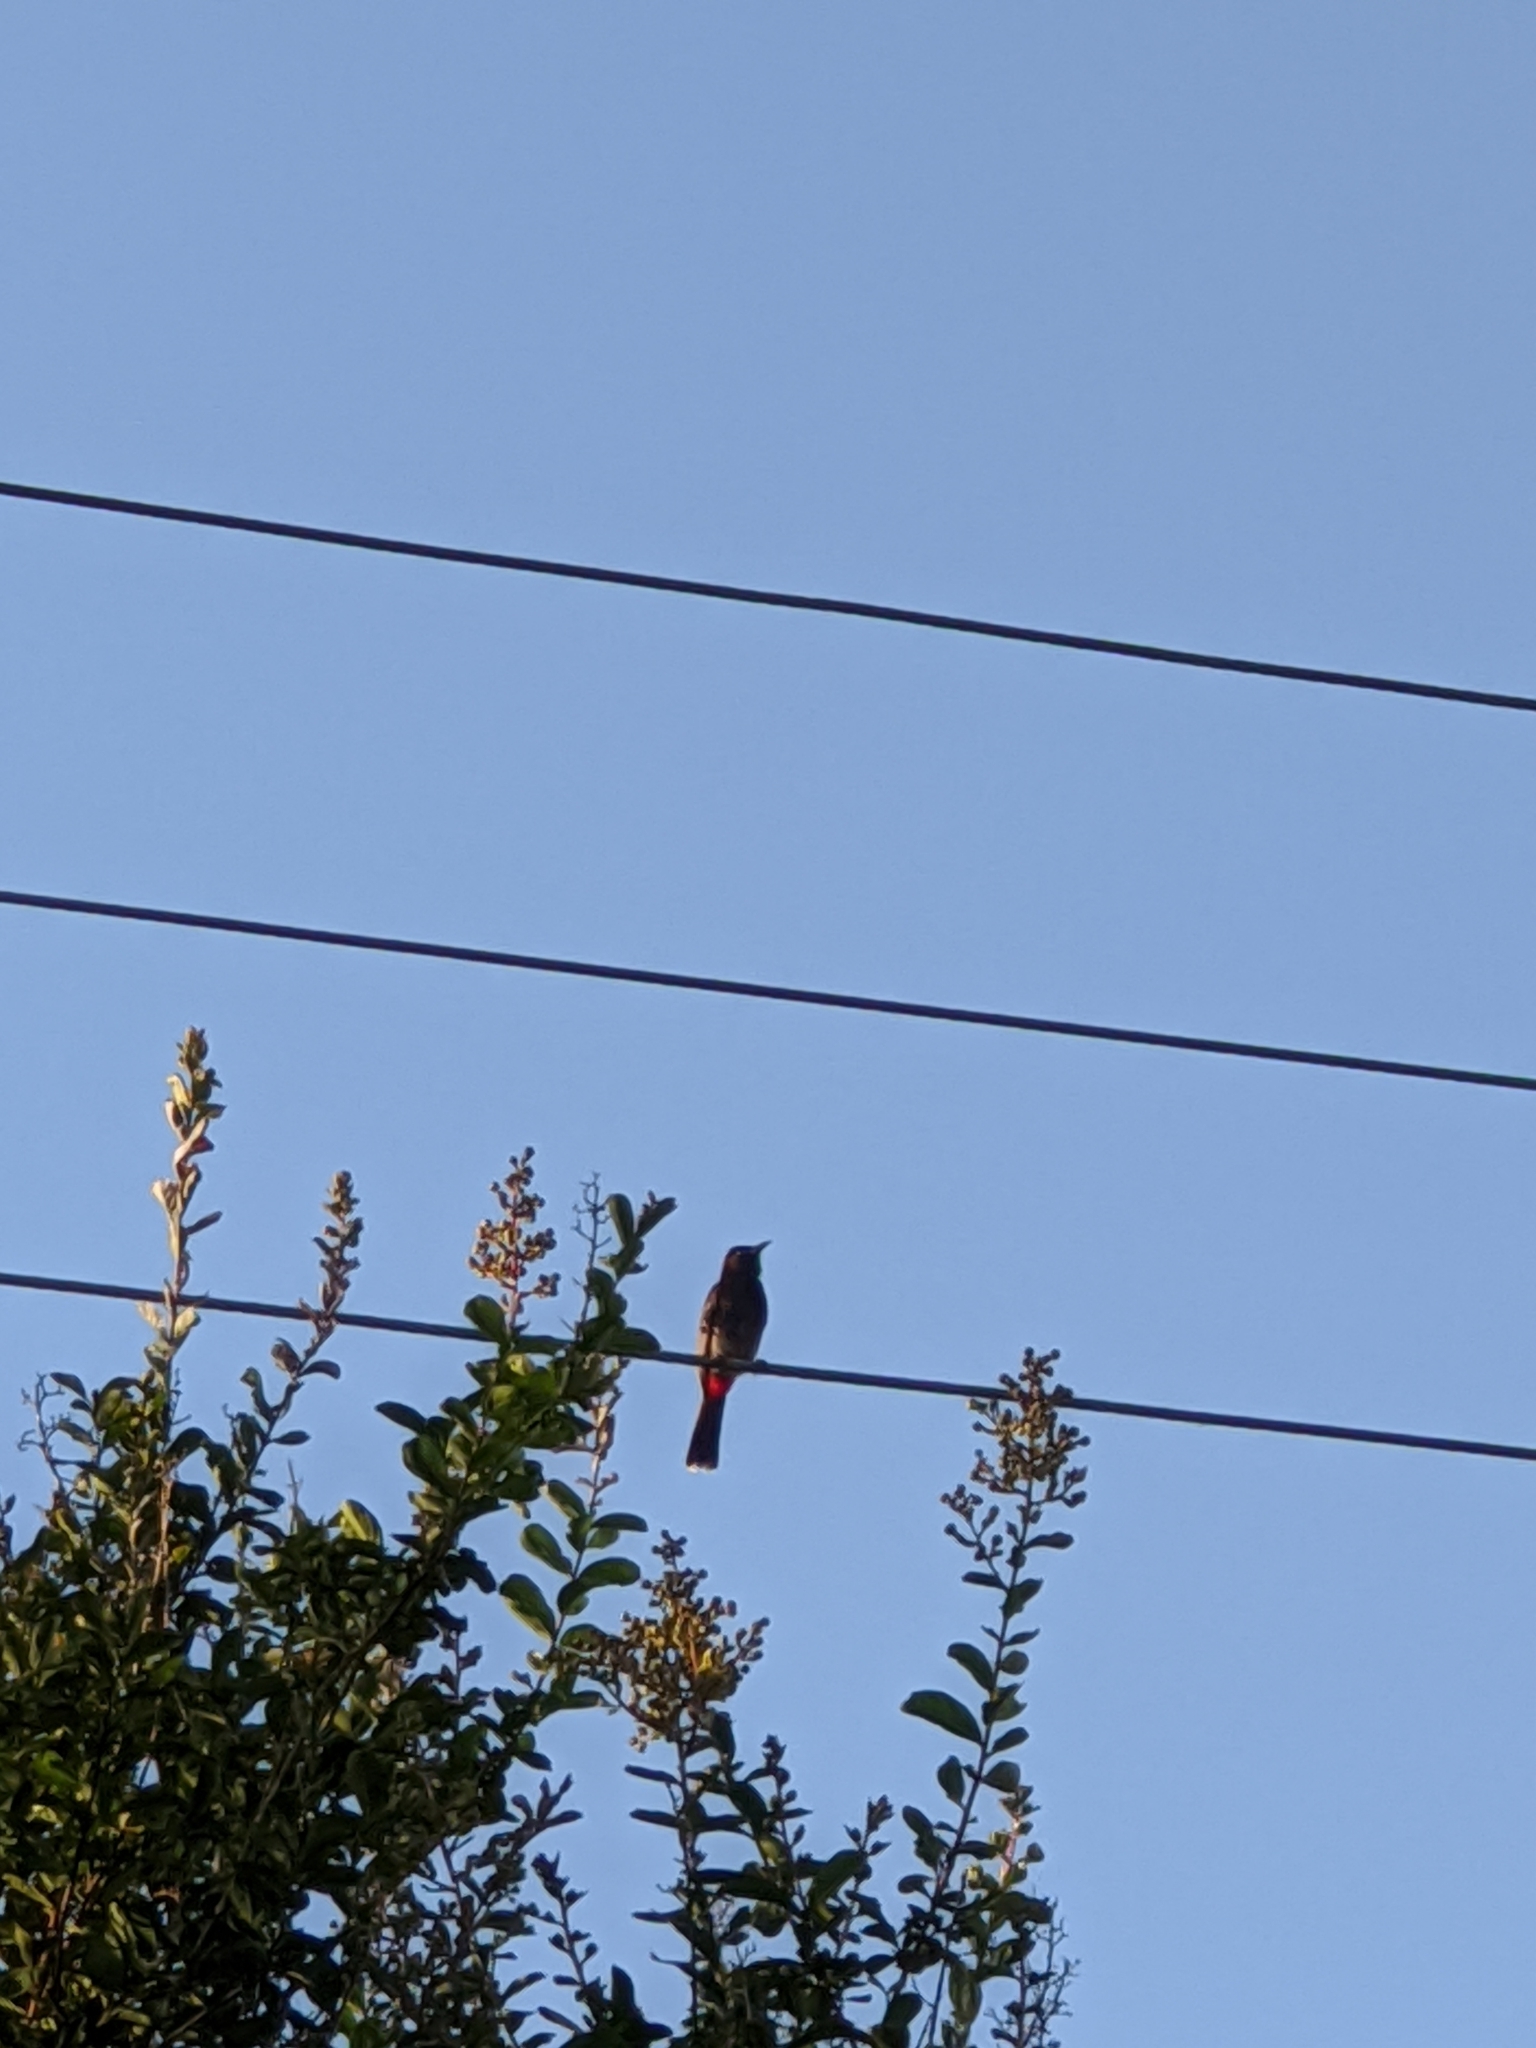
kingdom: Animalia
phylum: Chordata
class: Aves
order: Passeriformes
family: Pycnonotidae
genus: Pycnonotus
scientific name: Pycnonotus cafer
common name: Red-vented bulbul
